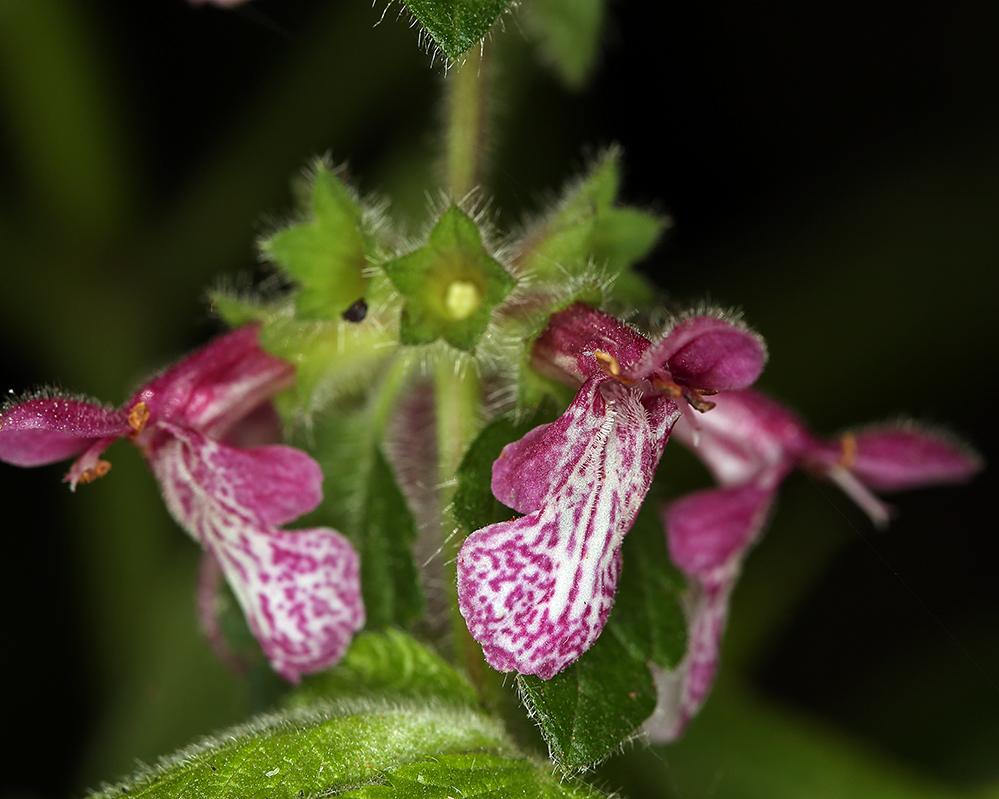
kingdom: Plantae
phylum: Tracheophyta
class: Magnoliopsida
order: Lamiales
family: Lamiaceae
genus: Stachys
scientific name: Stachys rigida
